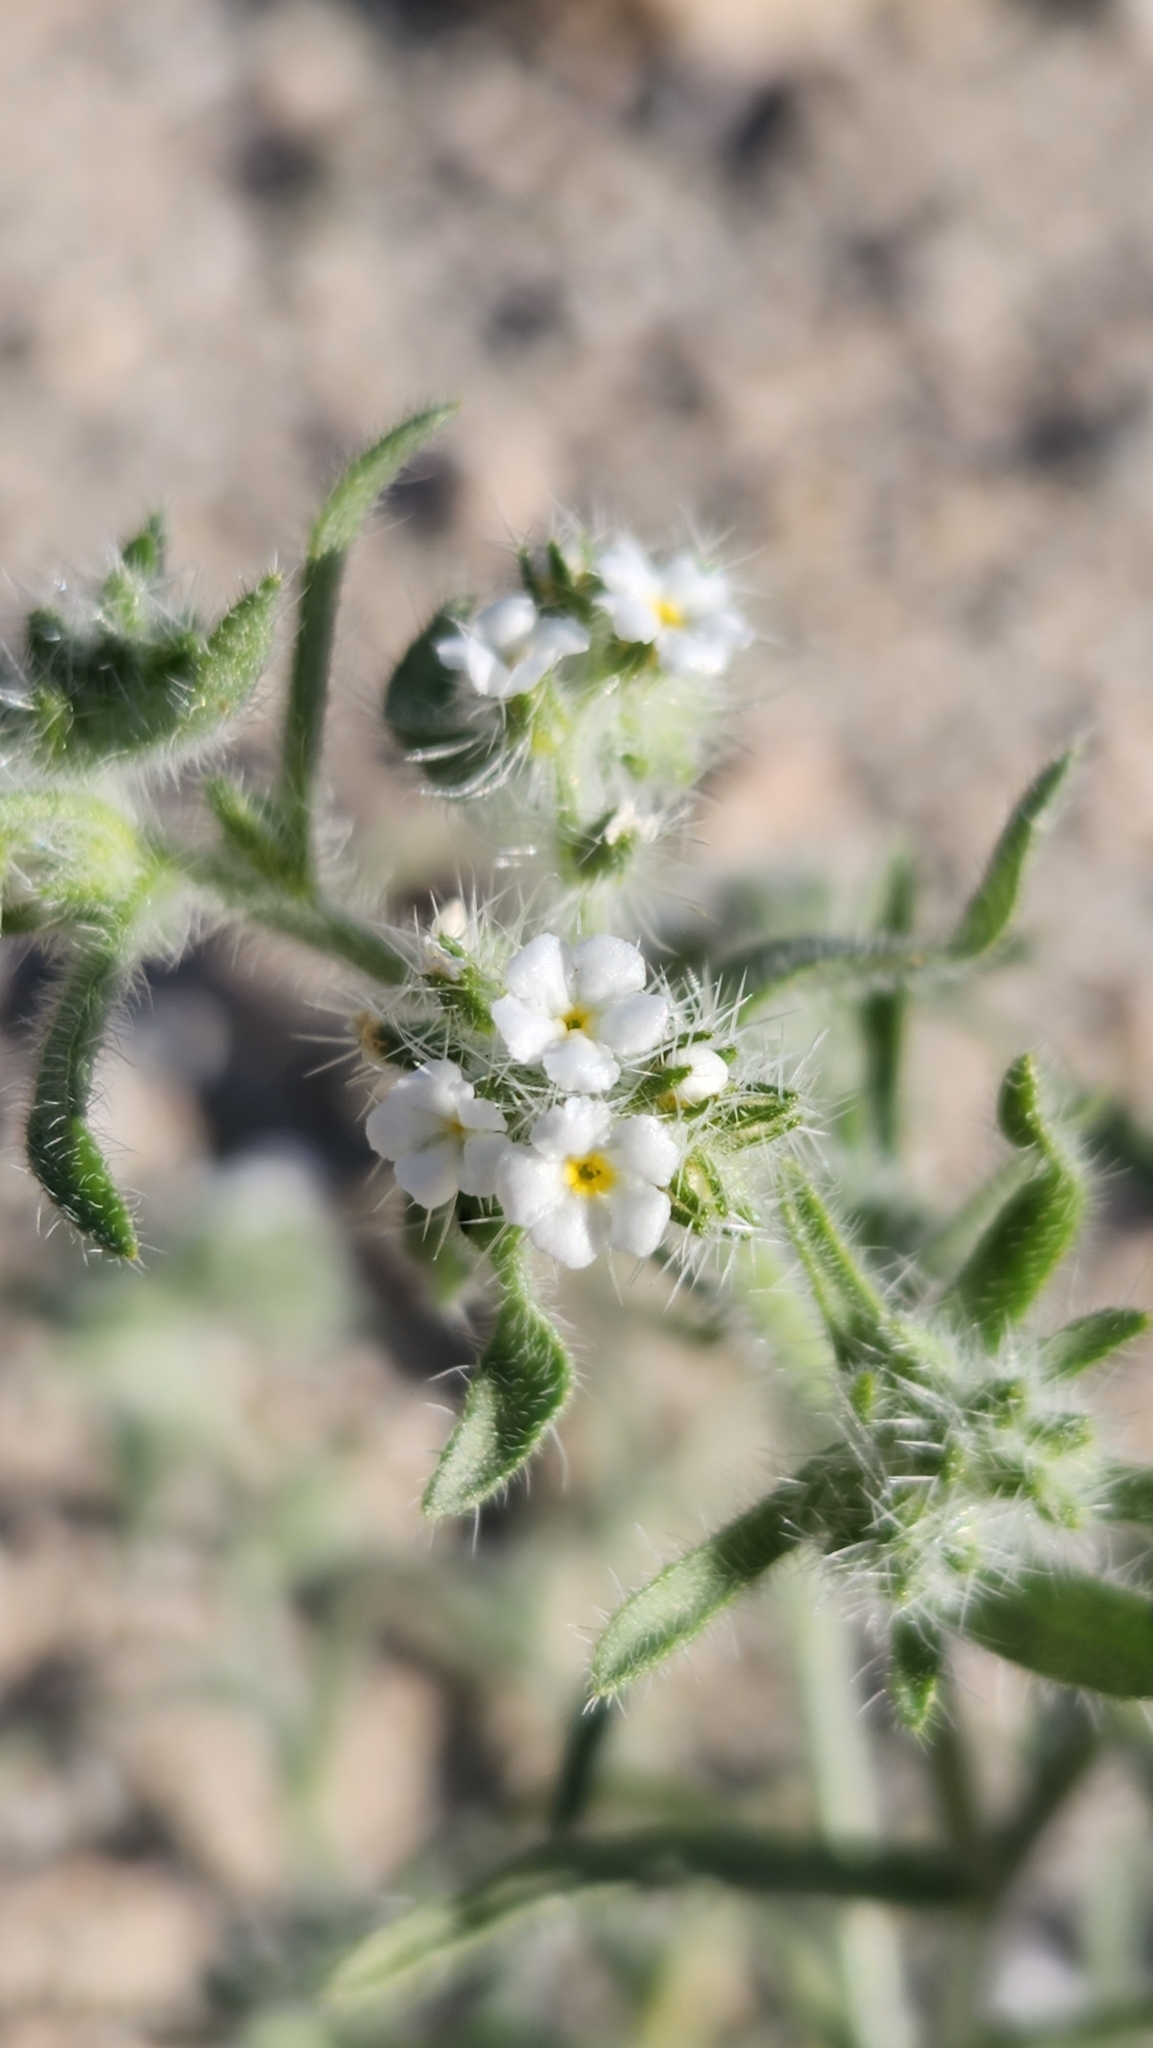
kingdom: Plantae
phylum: Tracheophyta
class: Magnoliopsida
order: Boraginales
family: Boraginaceae
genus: Johnstonella
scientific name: Johnstonella angustifolia
